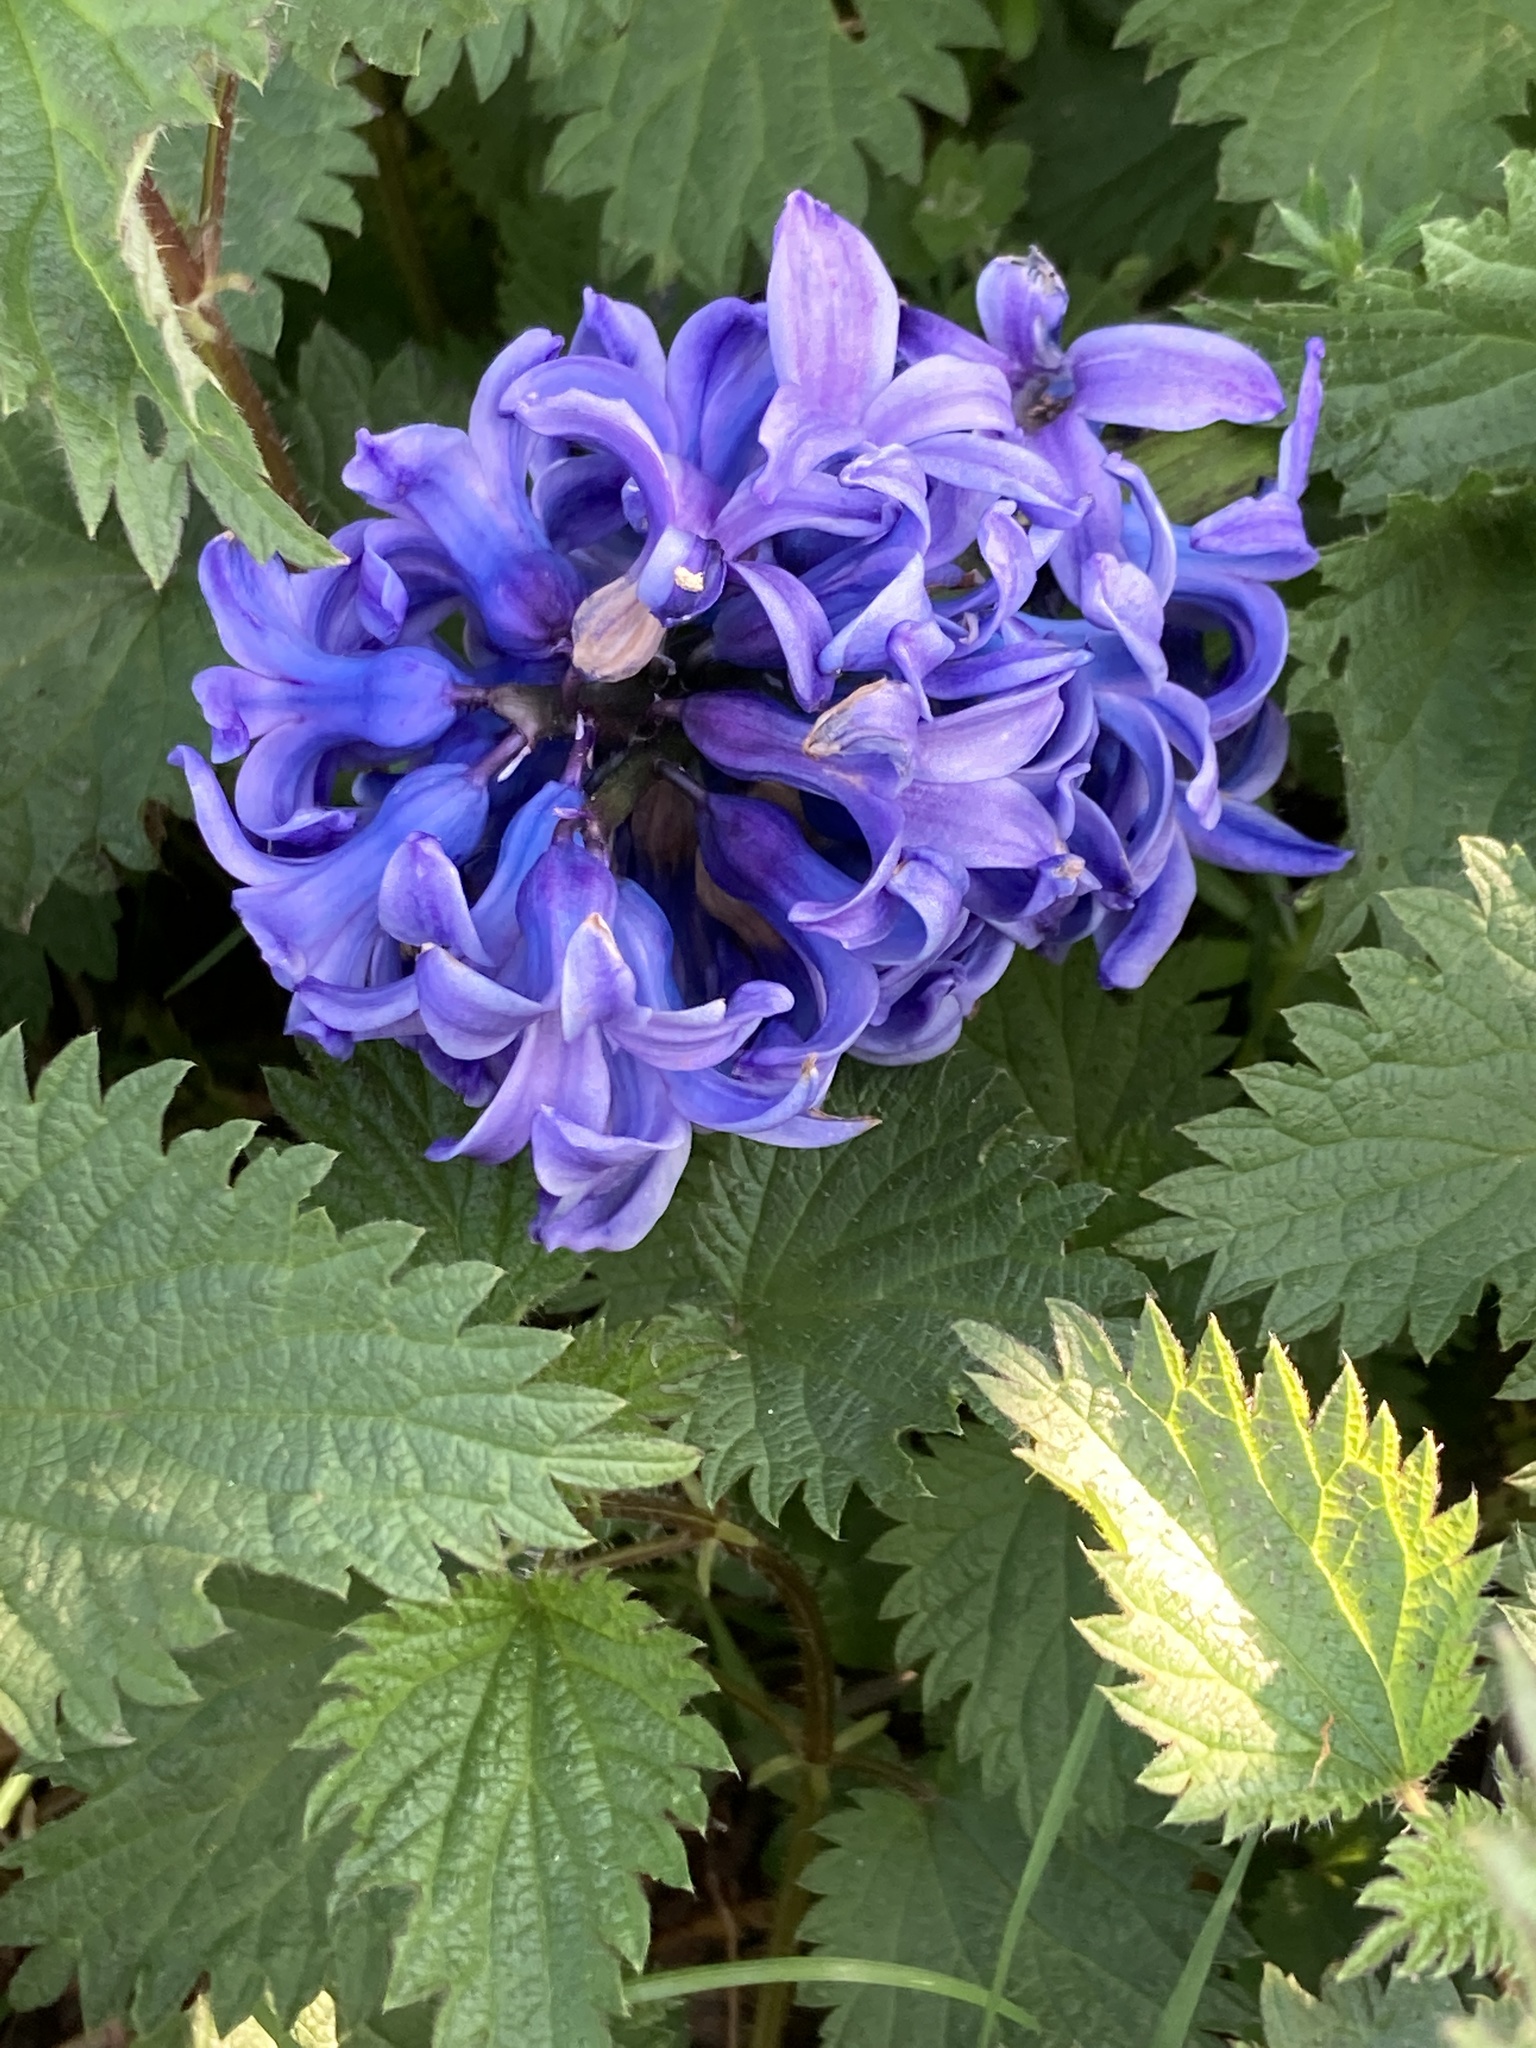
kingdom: Plantae
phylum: Tracheophyta
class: Liliopsida
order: Asparagales
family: Asparagaceae
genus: Hyacinthus
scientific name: Hyacinthus orientalis
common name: Hyacinth
